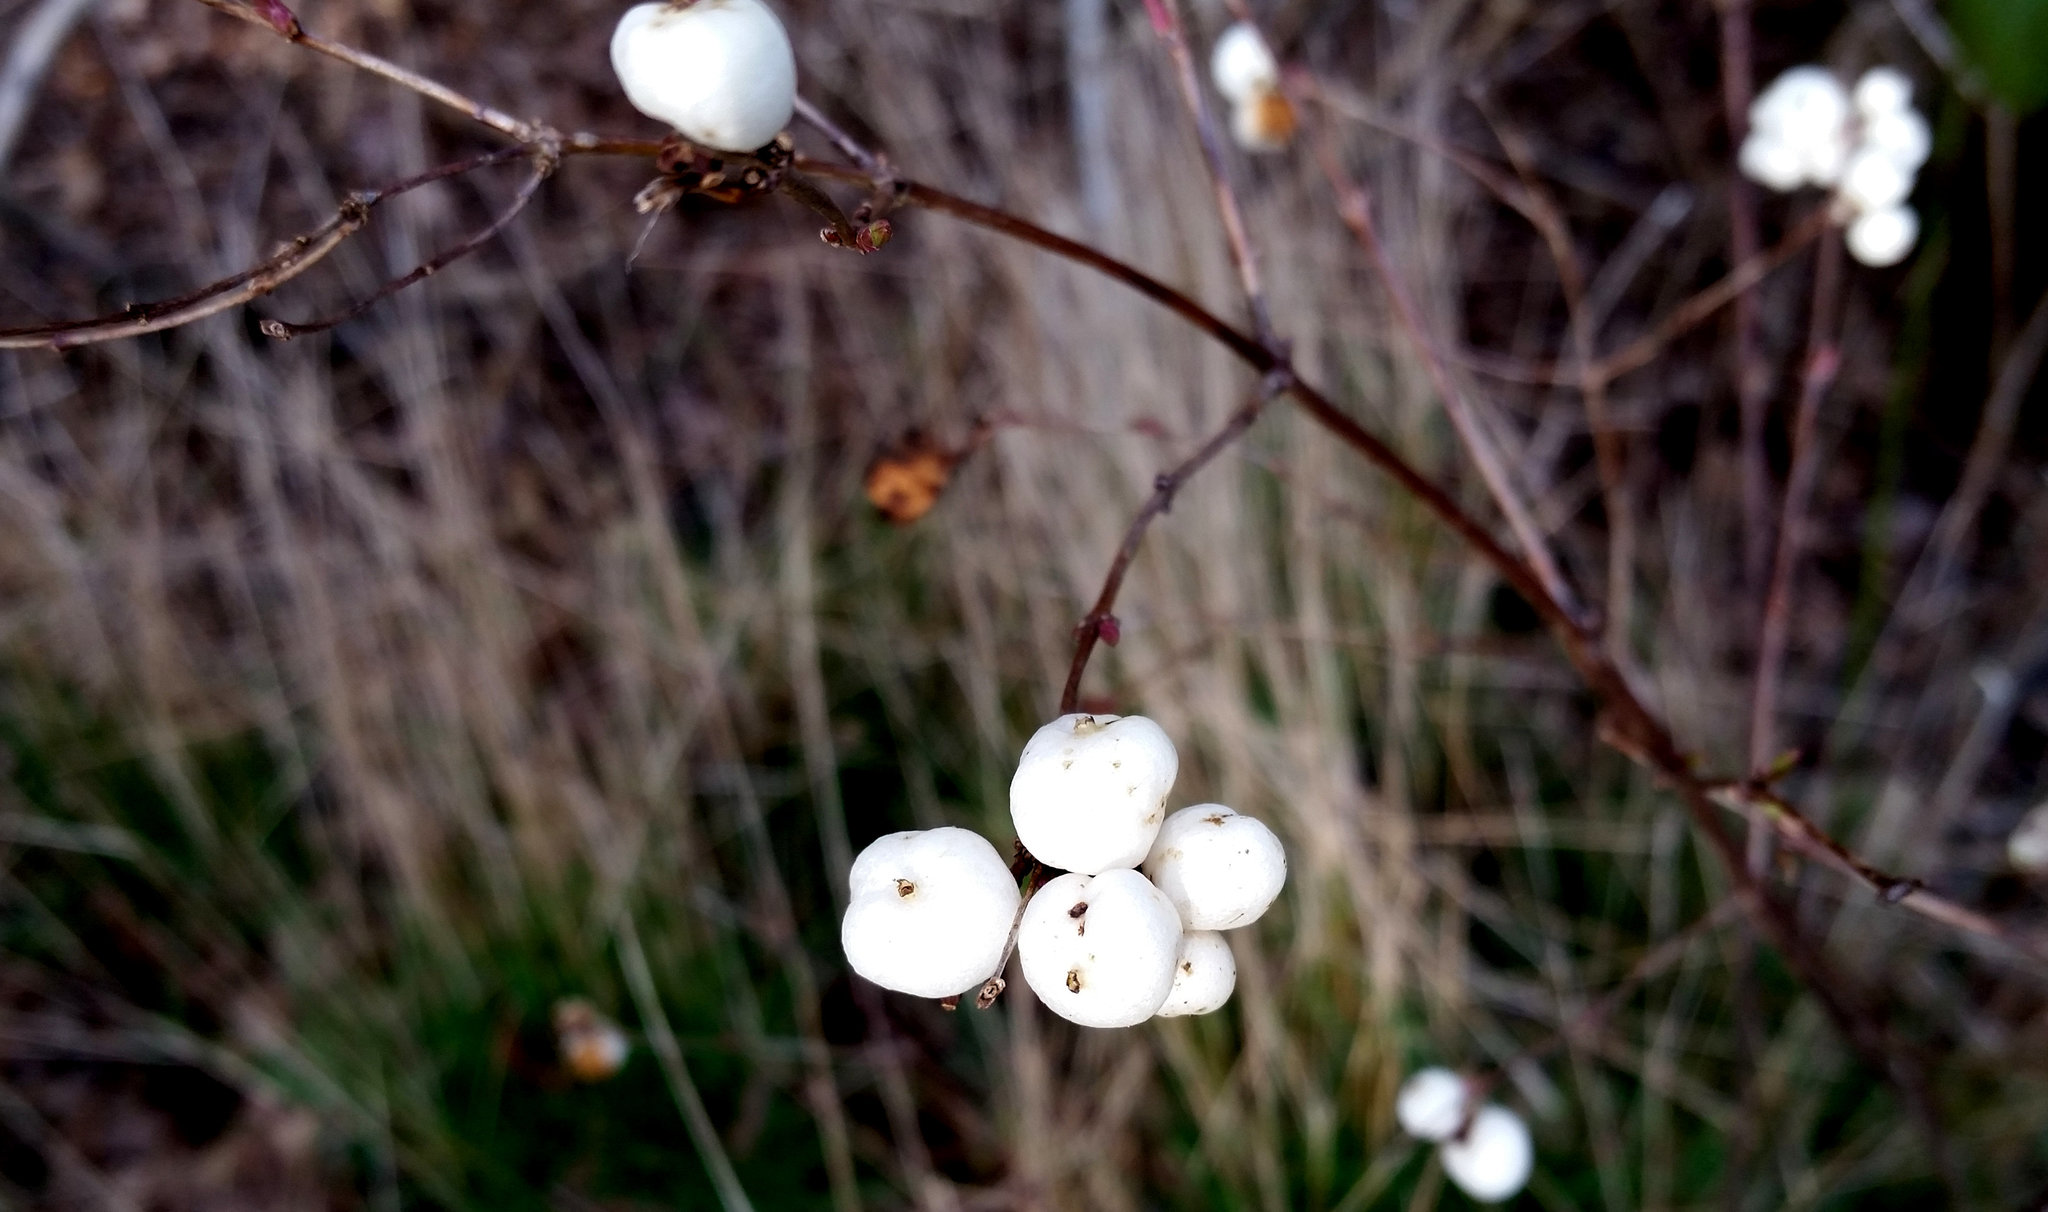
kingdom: Plantae
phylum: Tracheophyta
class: Magnoliopsida
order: Dipsacales
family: Caprifoliaceae
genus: Symphoricarpos
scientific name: Symphoricarpos albus
